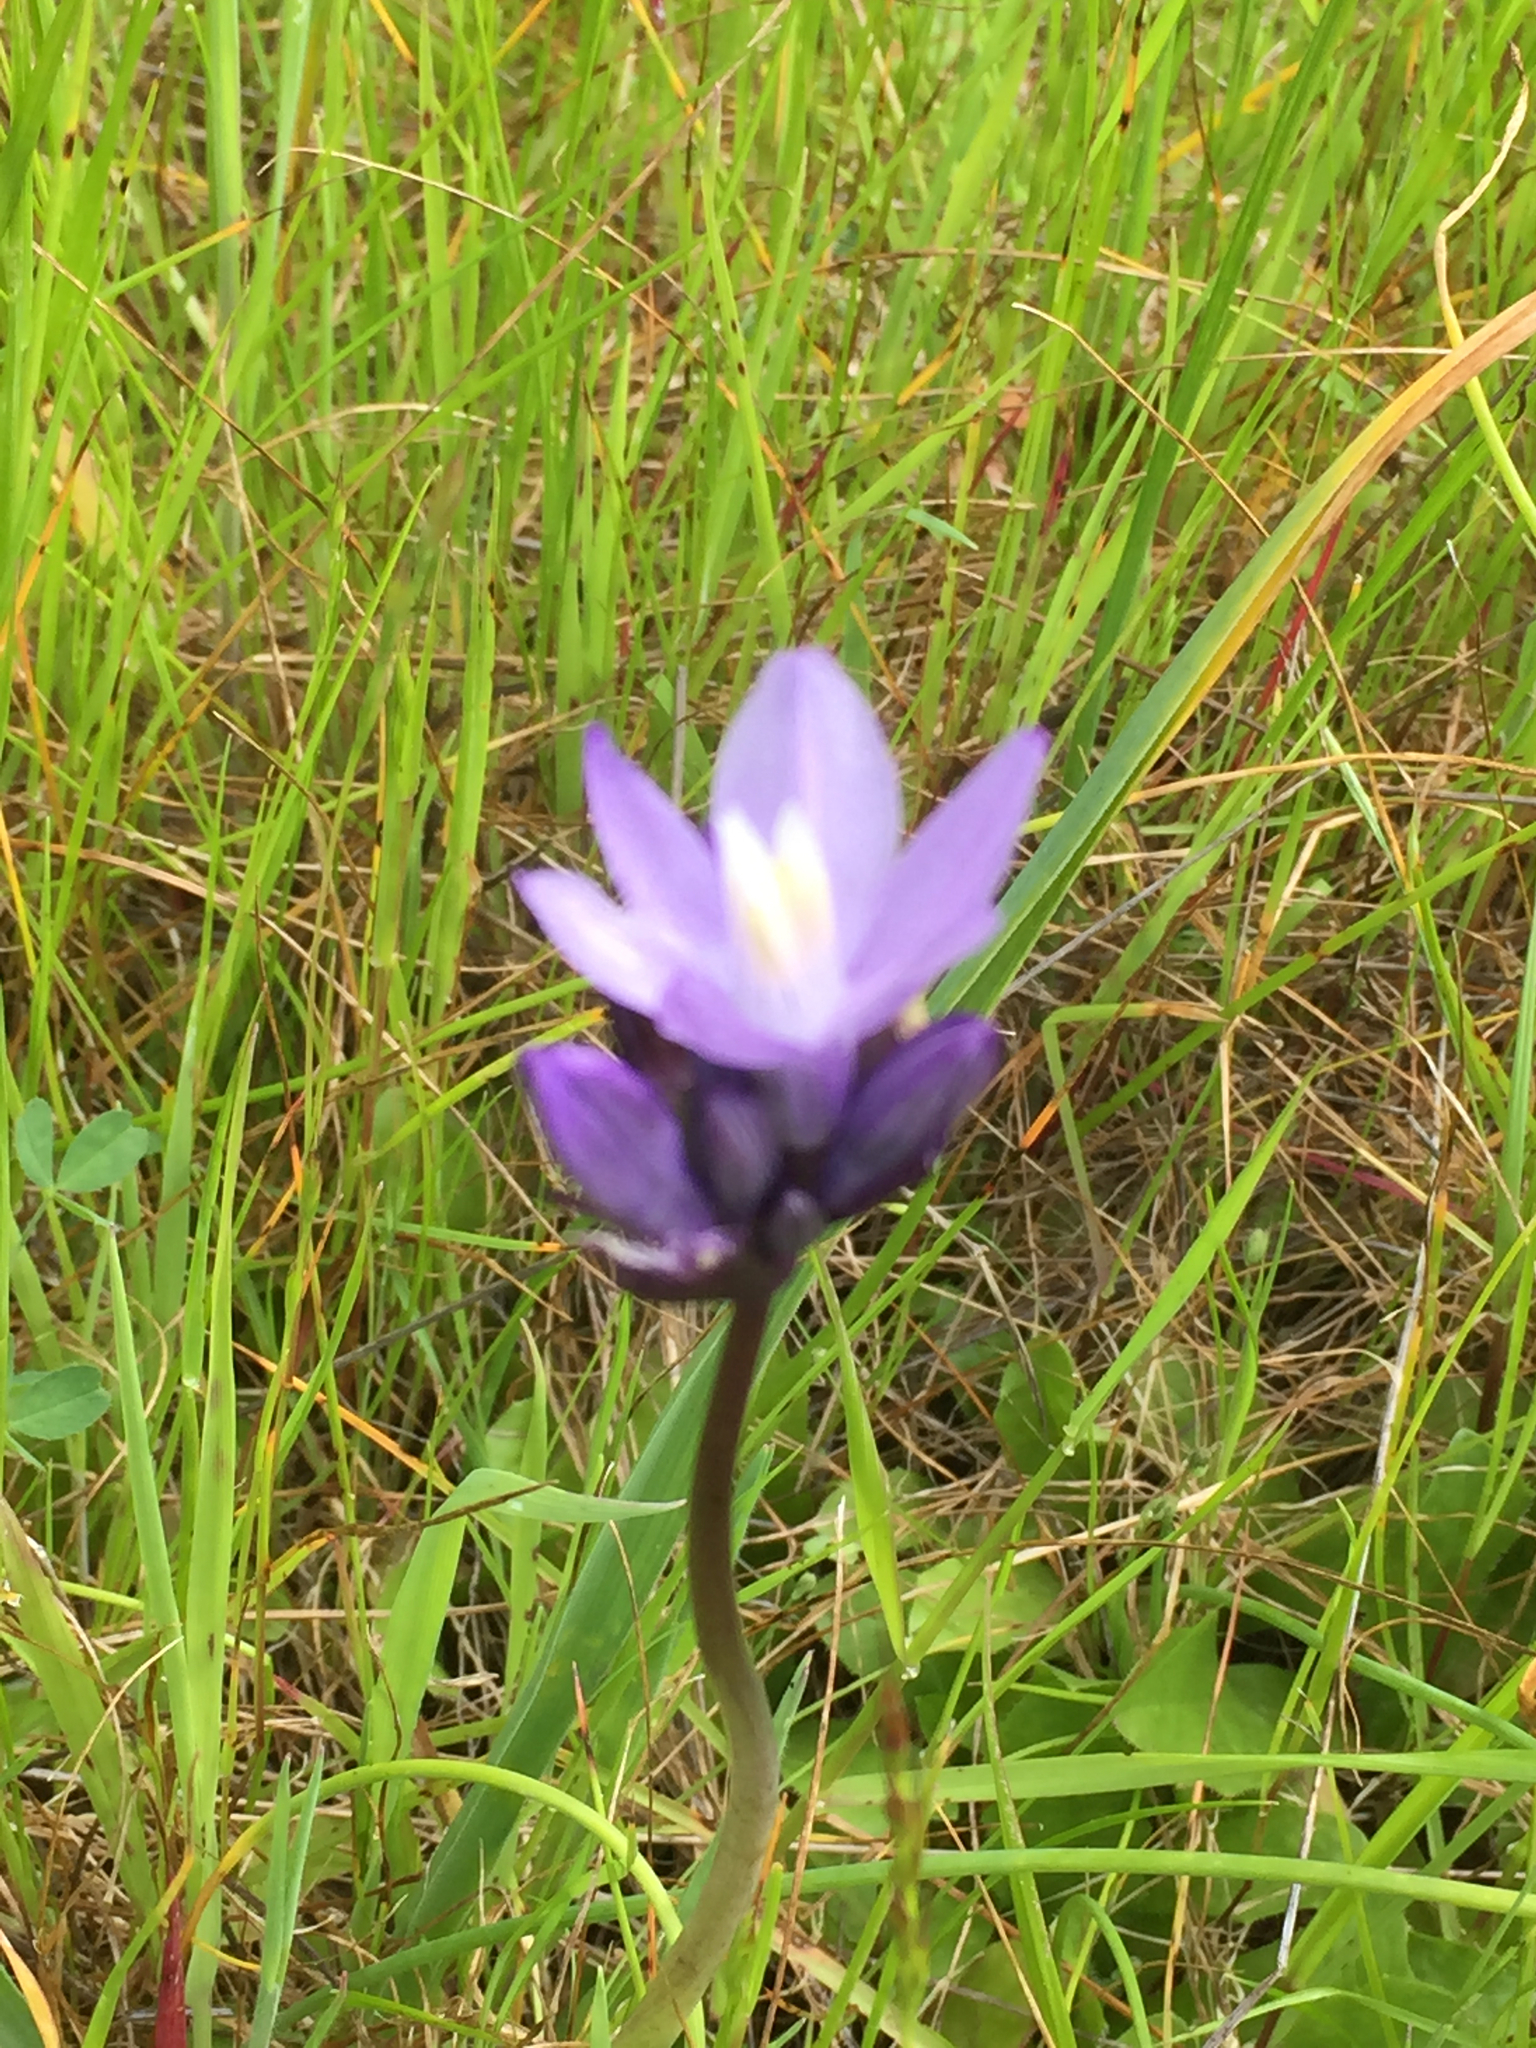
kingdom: Plantae
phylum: Tracheophyta
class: Liliopsida
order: Asparagales
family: Asparagaceae
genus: Dipterostemon
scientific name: Dipterostemon capitatus
